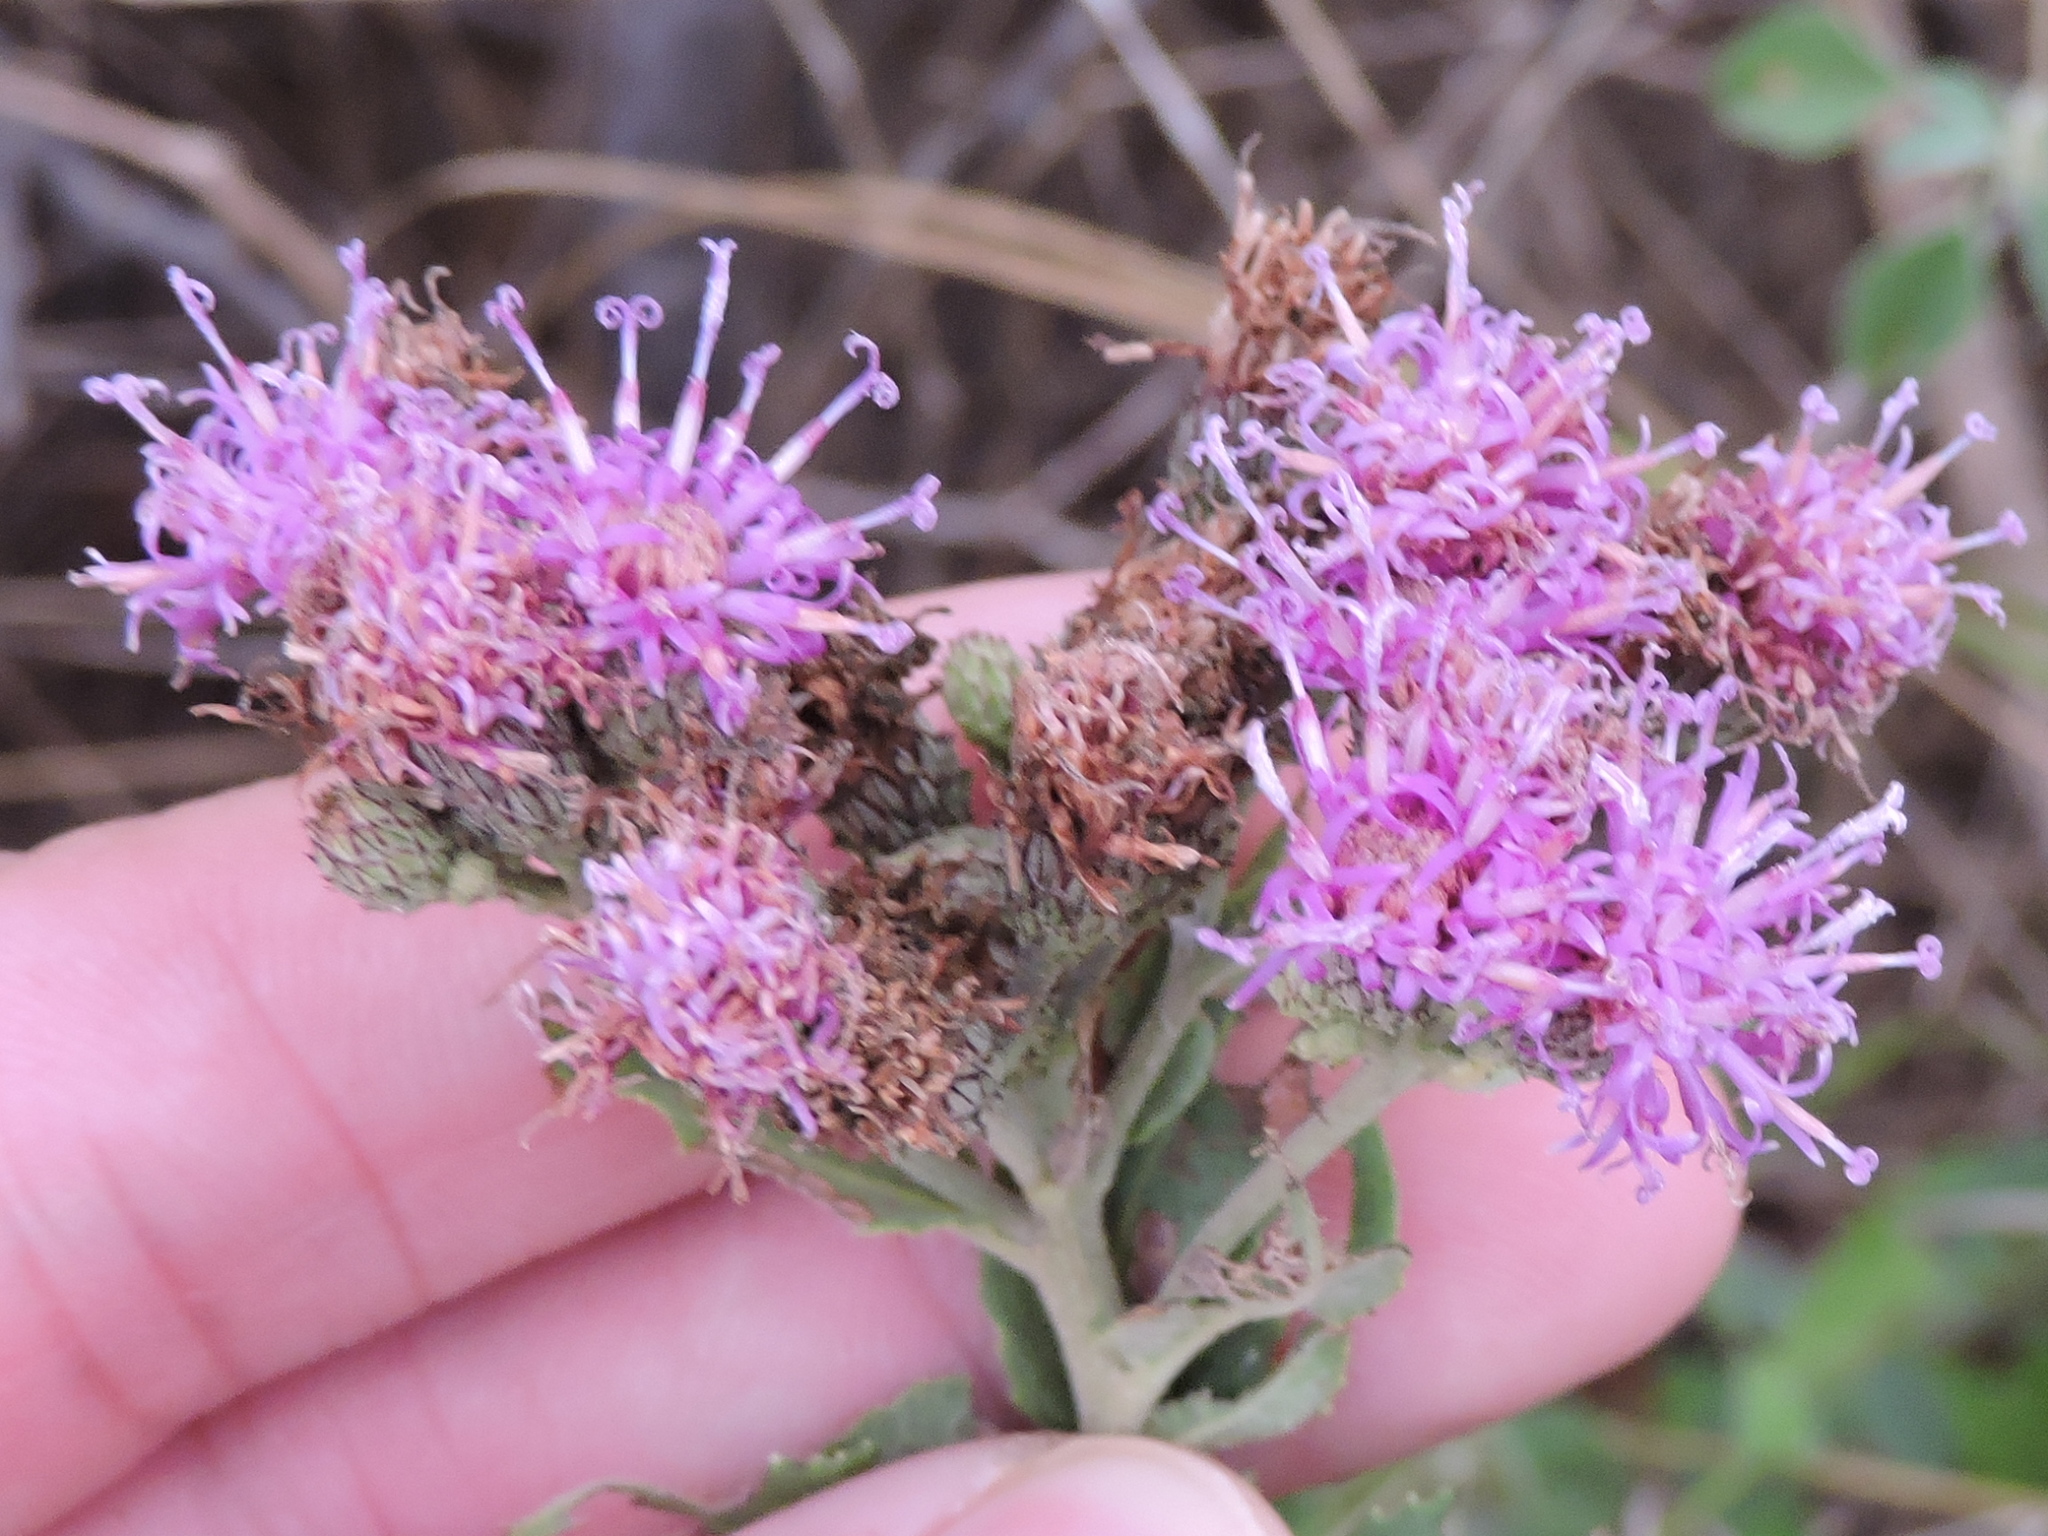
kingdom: Plantae
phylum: Tracheophyta
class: Magnoliopsida
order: Asterales
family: Asteraceae
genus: Vernonia
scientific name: Vernonia baldwinii
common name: Western ironweed
